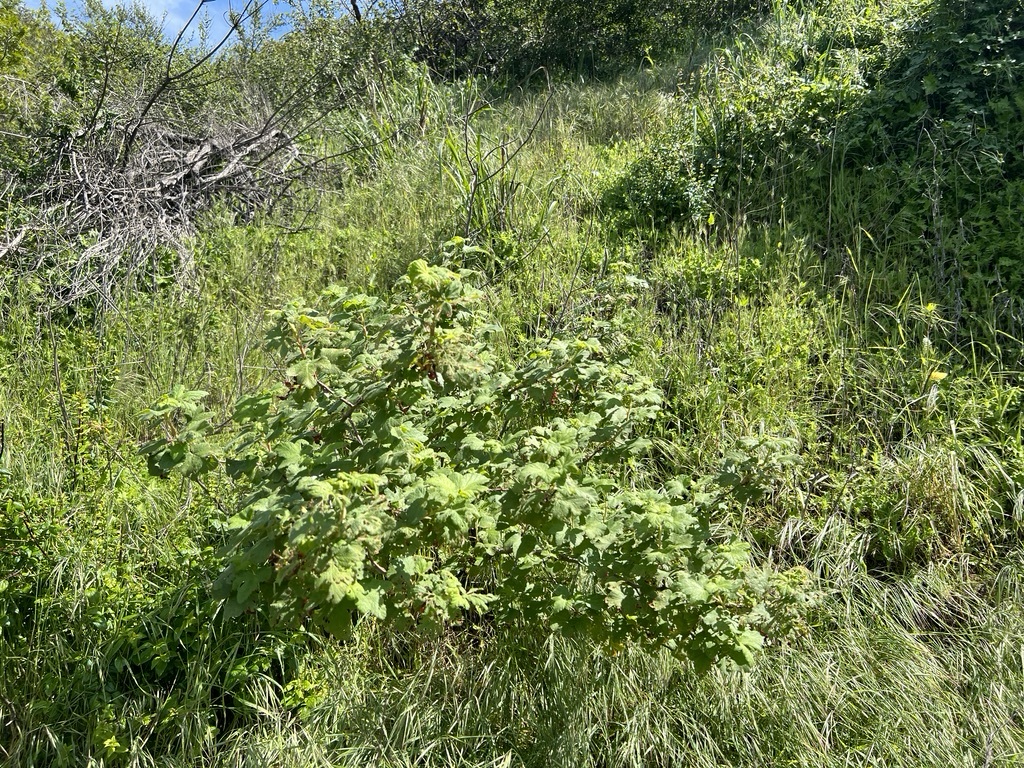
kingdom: Plantae
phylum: Tracheophyta
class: Magnoliopsida
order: Saxifragales
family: Grossulariaceae
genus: Ribes
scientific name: Ribes malvaceum
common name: Chaparral currant
